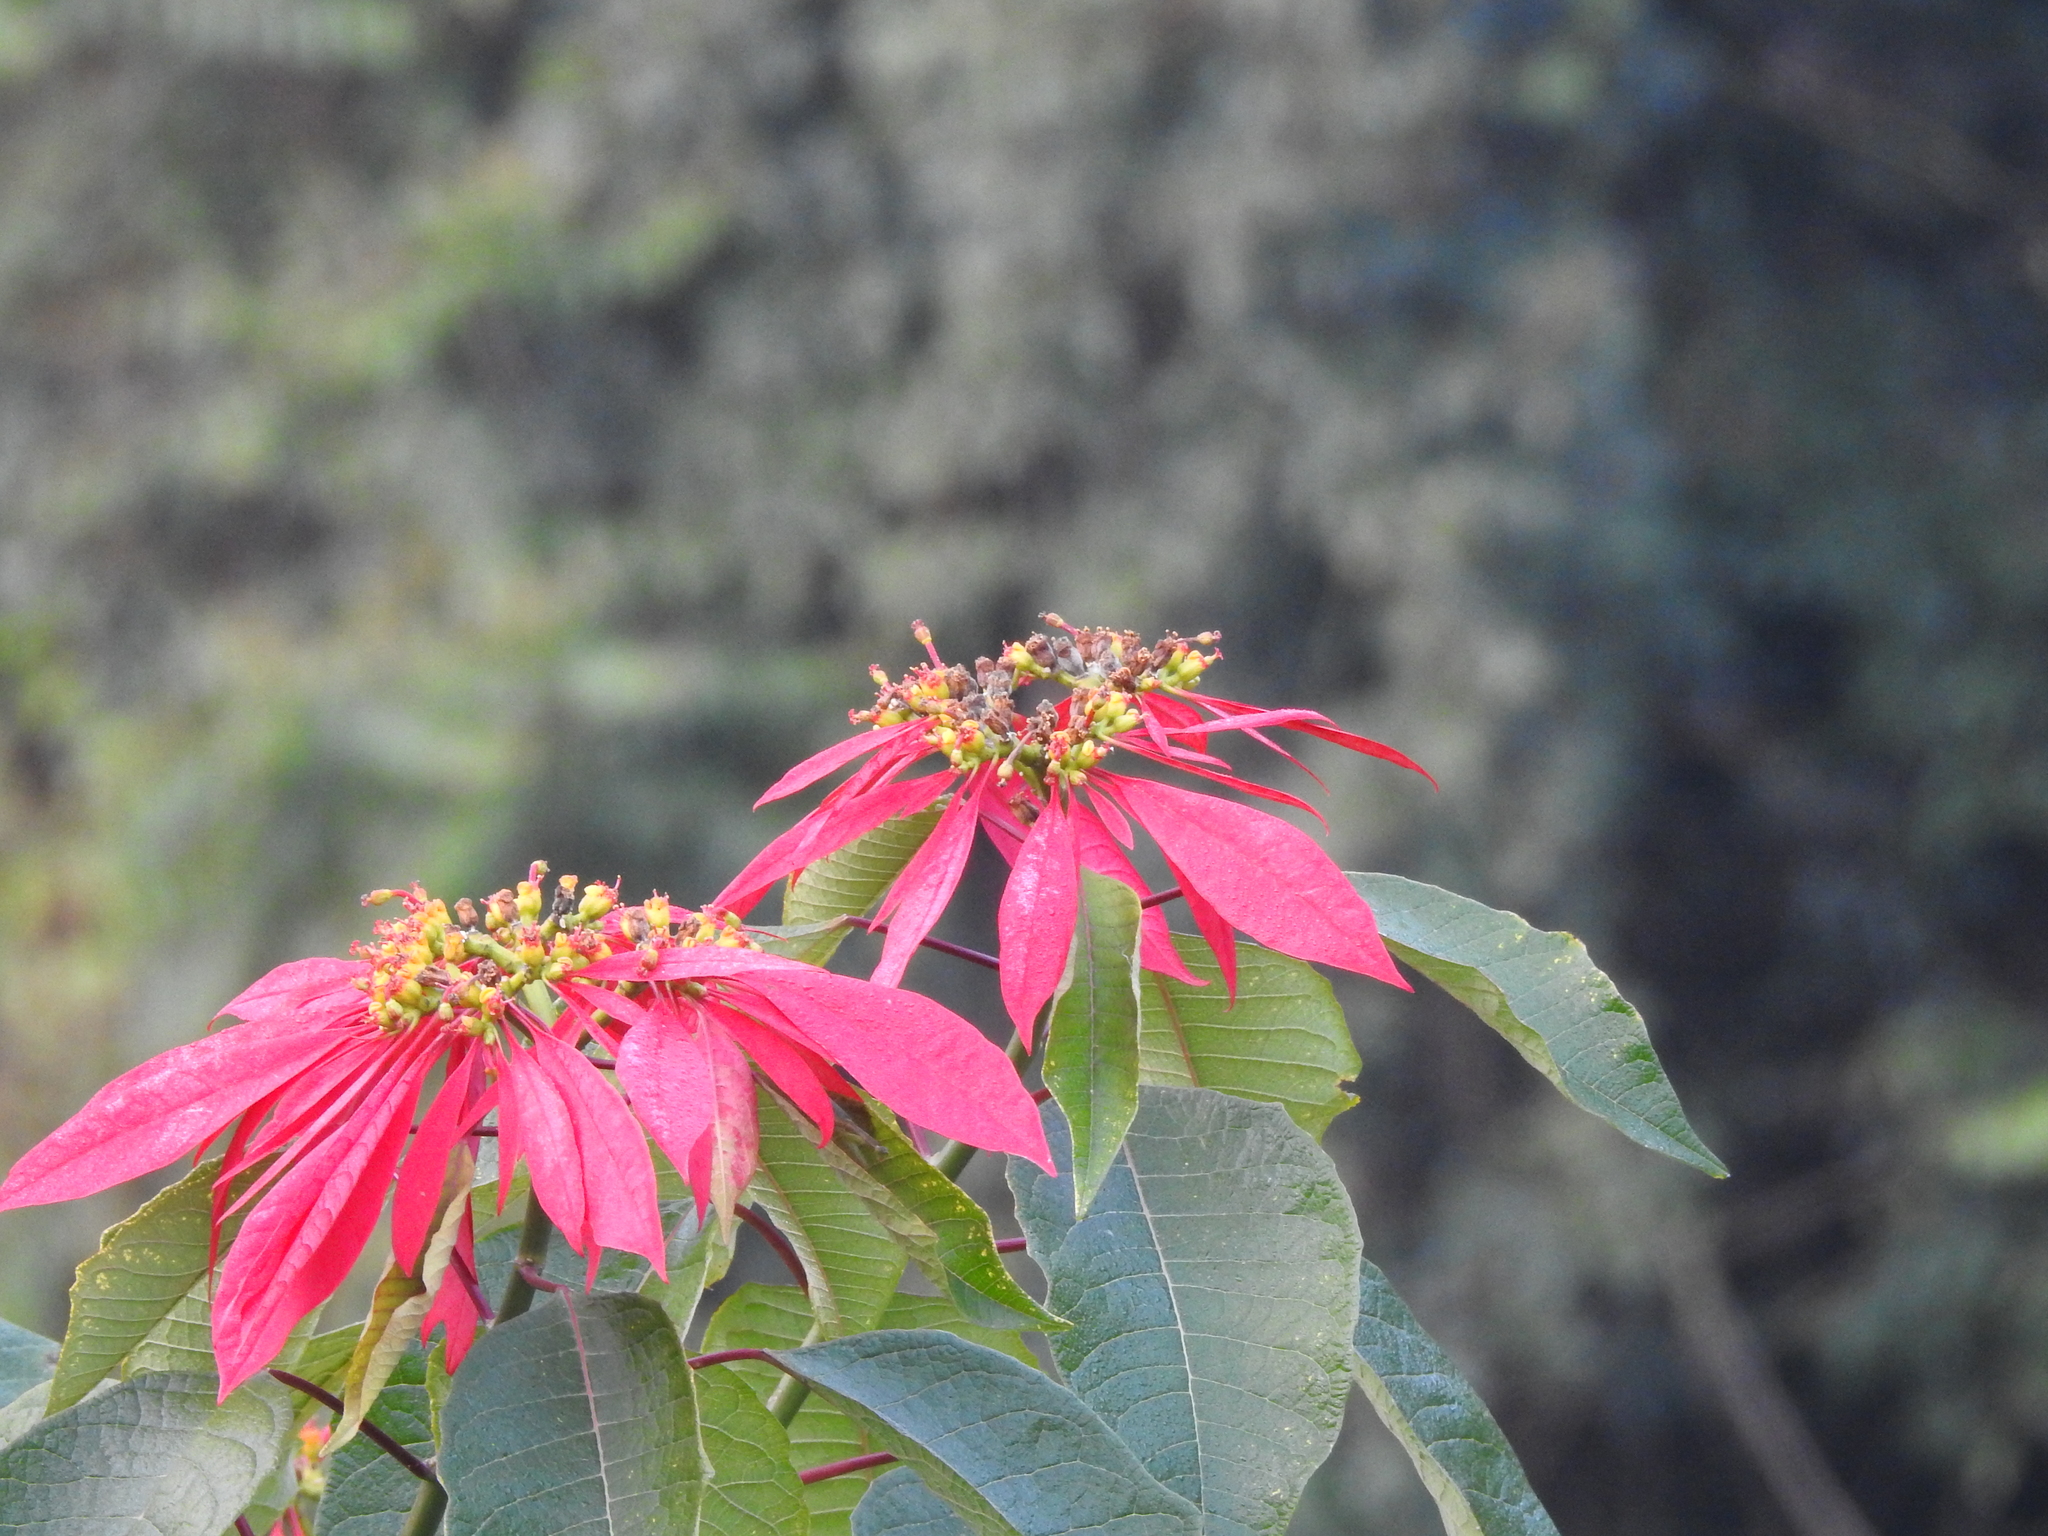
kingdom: Plantae
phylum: Tracheophyta
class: Magnoliopsida
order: Malpighiales
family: Euphorbiaceae
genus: Euphorbia
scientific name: Euphorbia pulcherrima
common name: Christmas-flower
